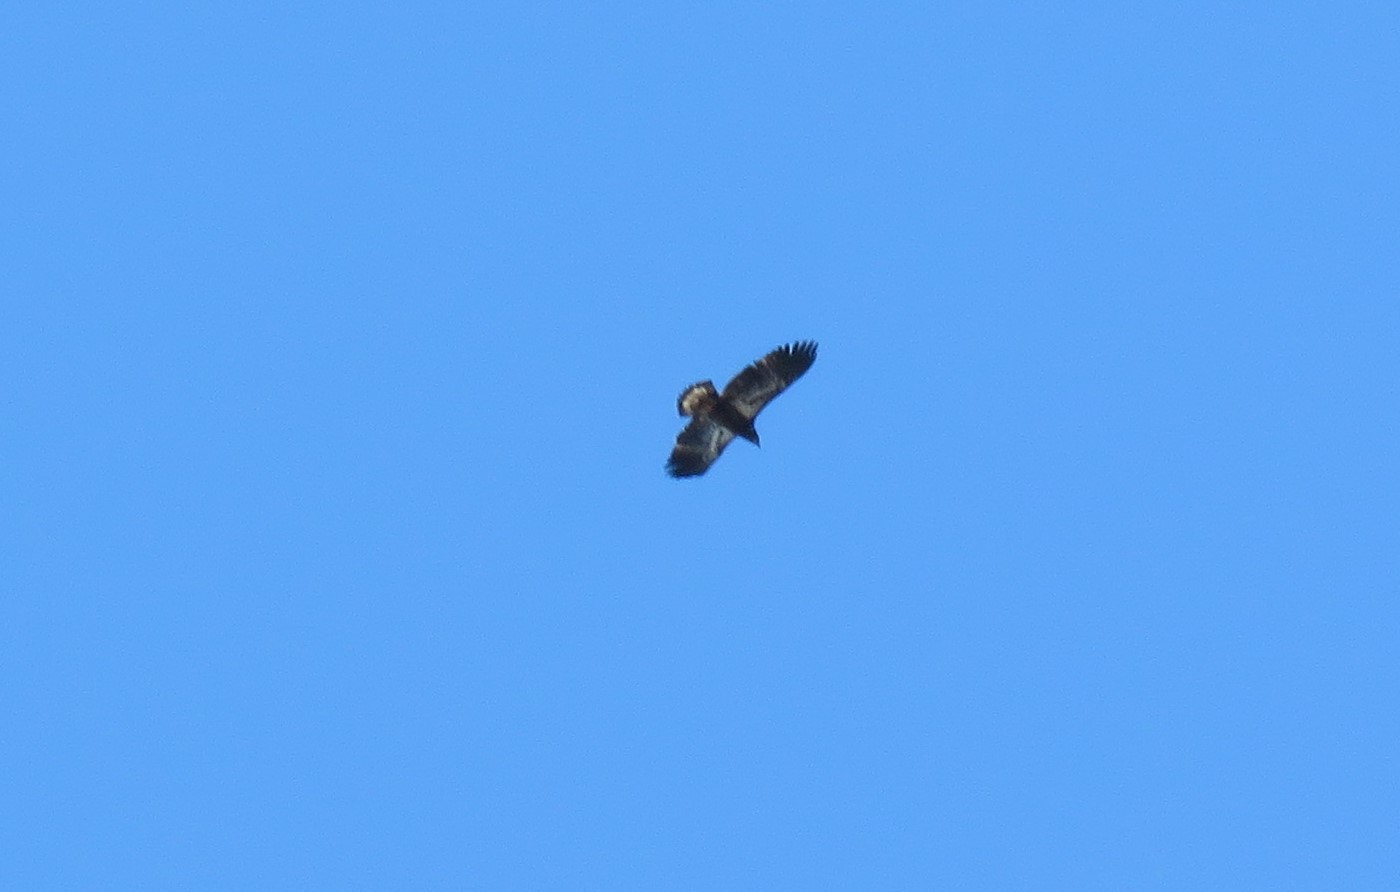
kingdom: Animalia
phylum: Chordata
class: Aves
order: Accipitriformes
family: Accipitridae
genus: Haliaeetus
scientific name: Haliaeetus leucocephalus
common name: Bald eagle
